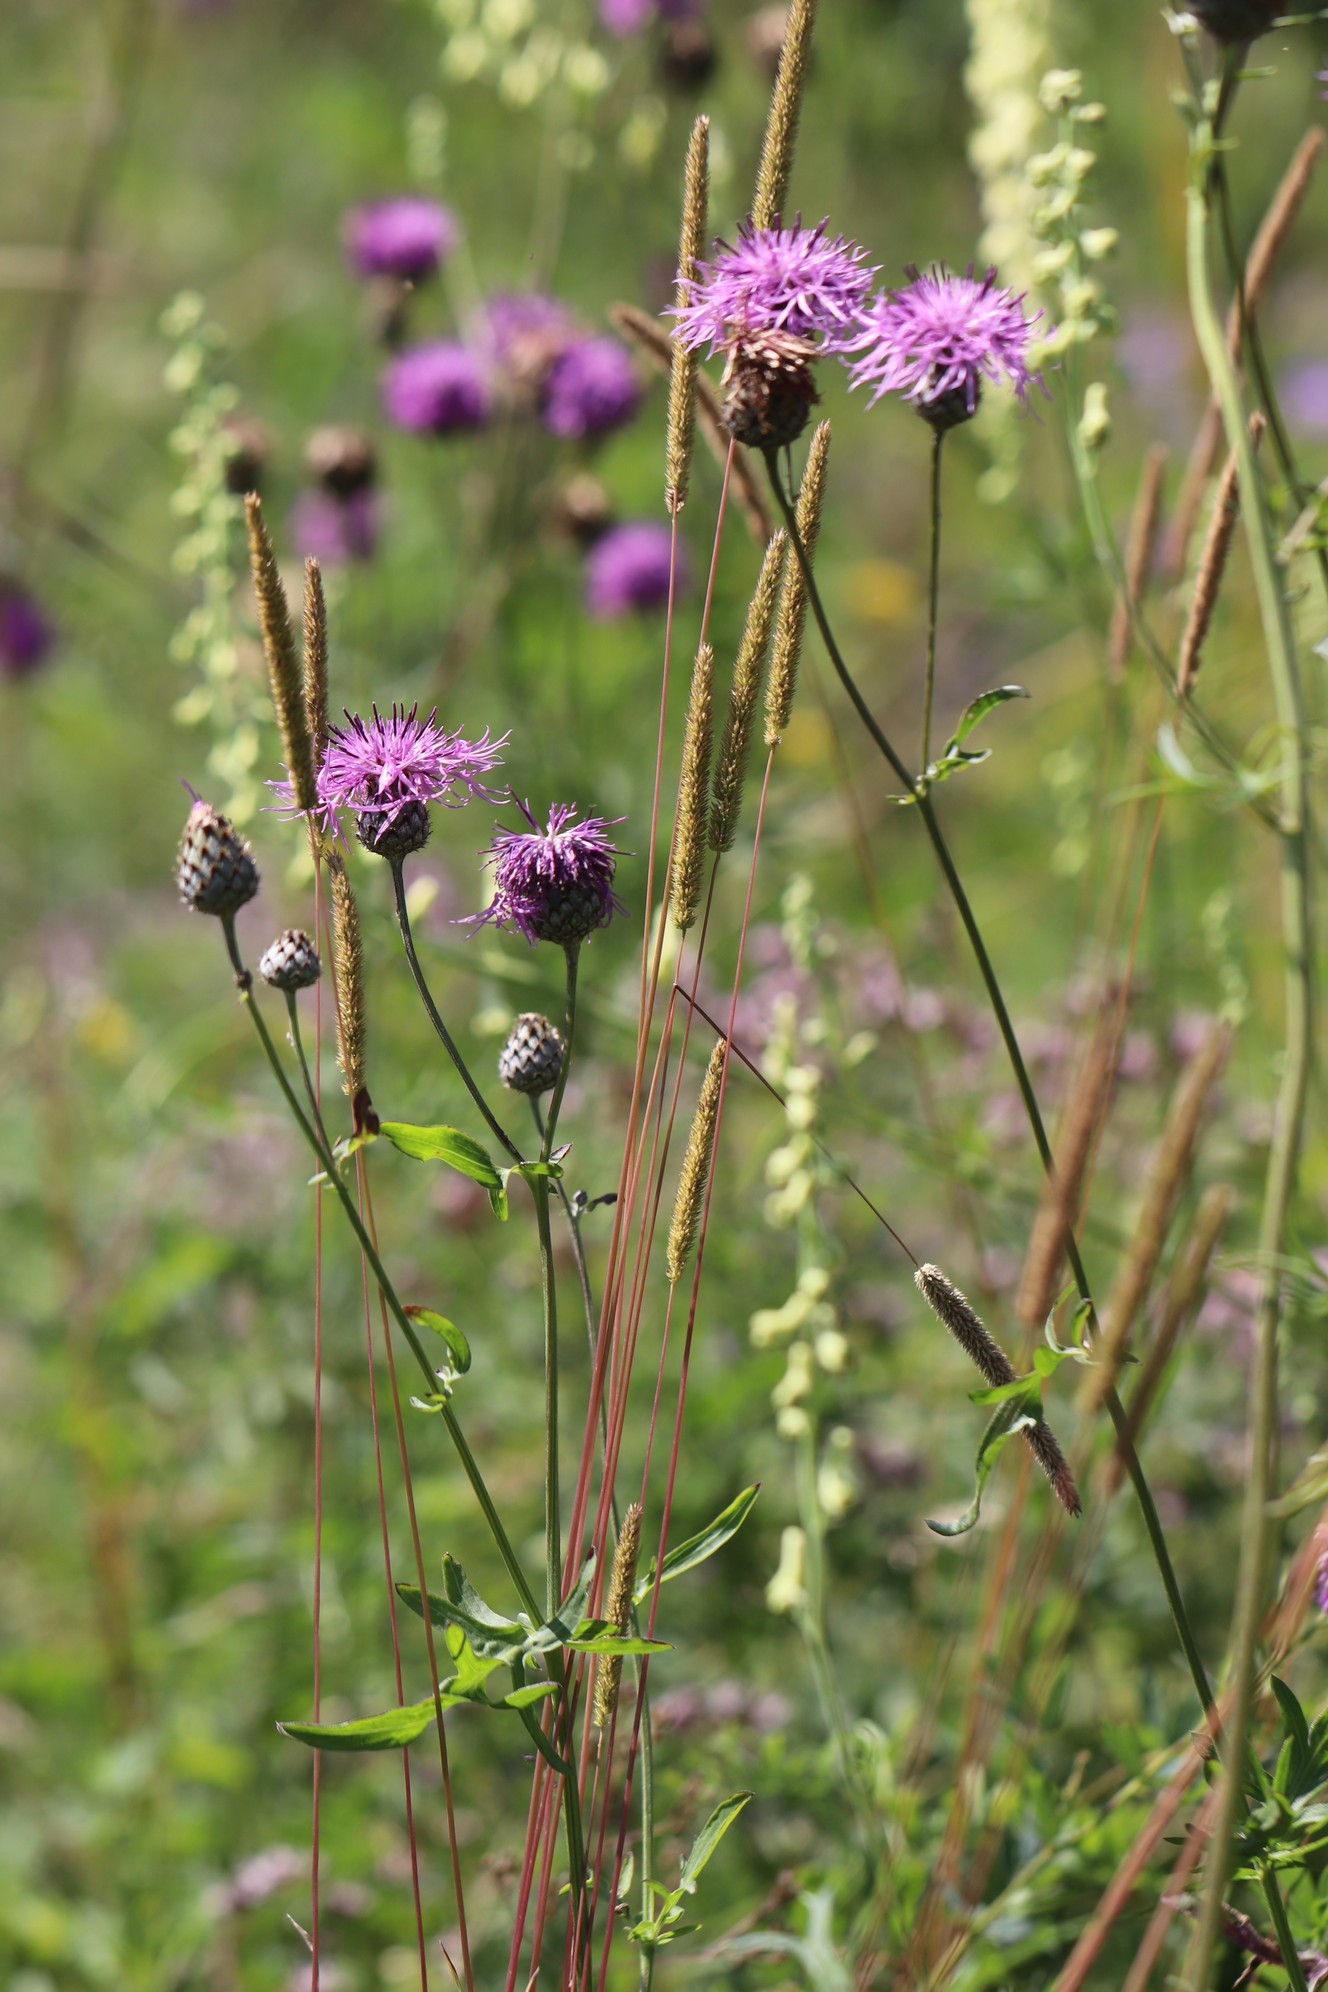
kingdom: Plantae
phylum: Tracheophyta
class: Magnoliopsida
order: Asterales
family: Asteraceae
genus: Centaurea
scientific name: Centaurea scabiosa
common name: Greater knapweed
